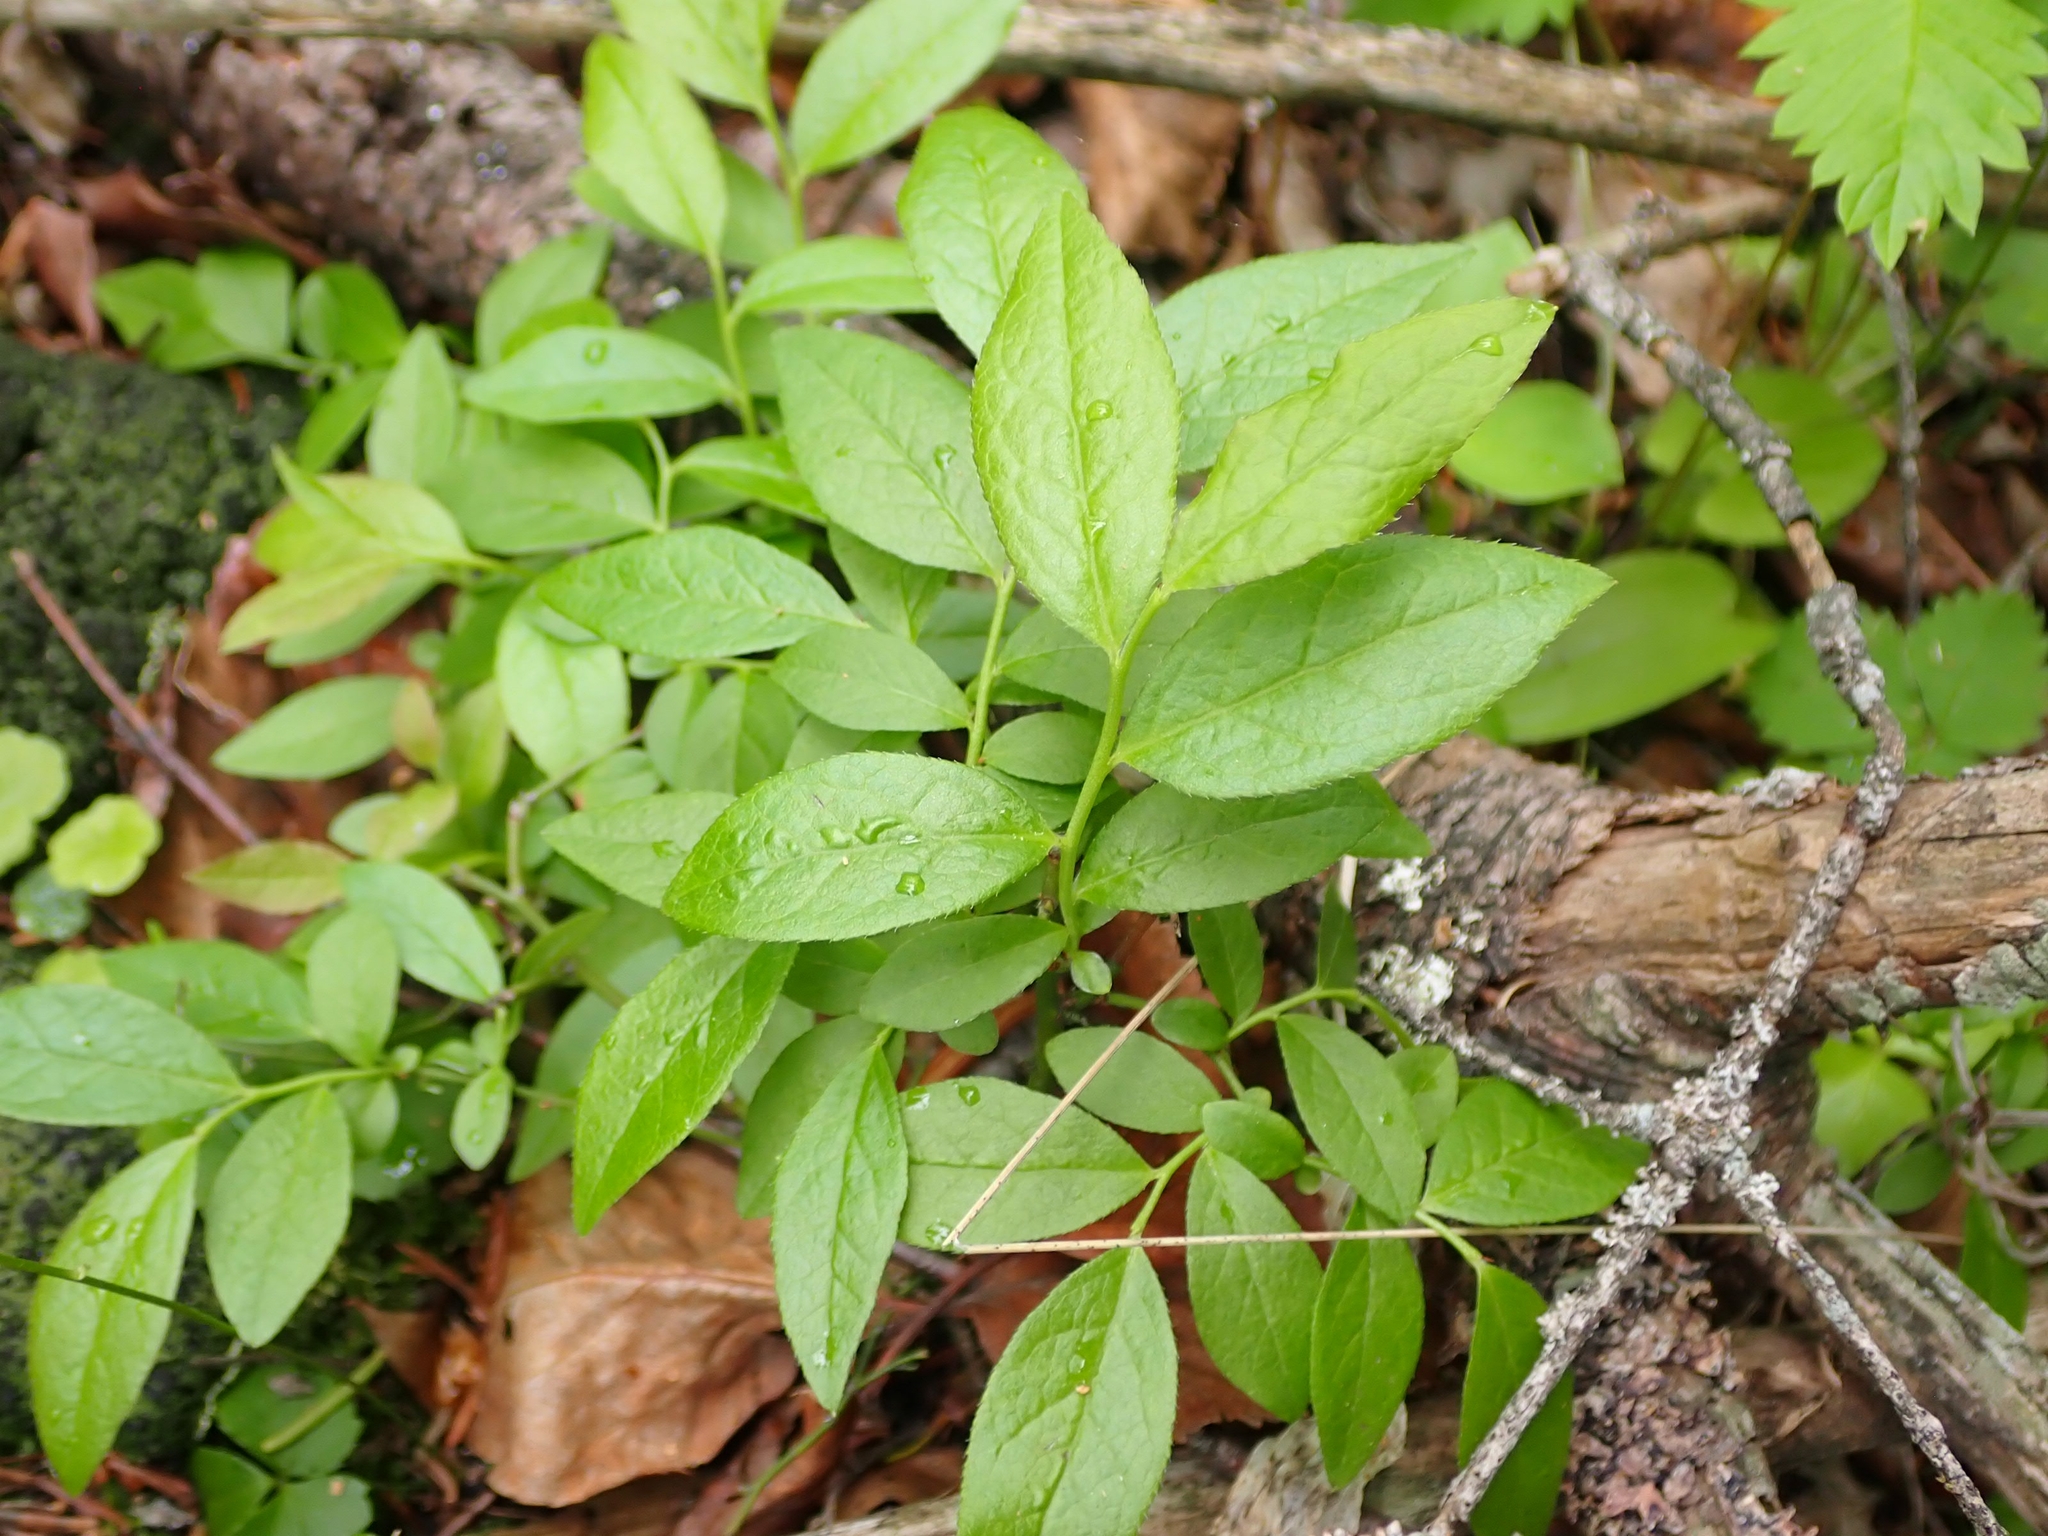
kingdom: Plantae
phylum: Tracheophyta
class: Magnoliopsida
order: Ericales
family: Ericaceae
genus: Vaccinium
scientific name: Vaccinium angustifolium
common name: Early lowbush blueberry
